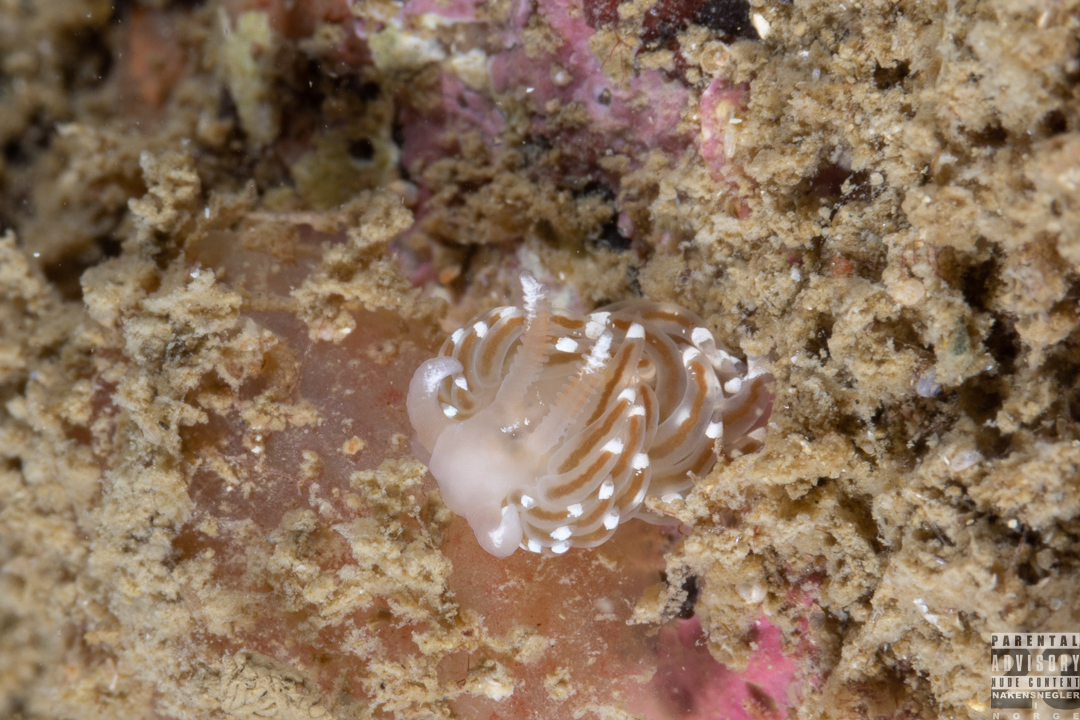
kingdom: Animalia
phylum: Mollusca
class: Gastropoda
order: Nudibranchia
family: Facelinidae
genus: Facelina
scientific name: Facelina bostoniensis
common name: Boston facelina
